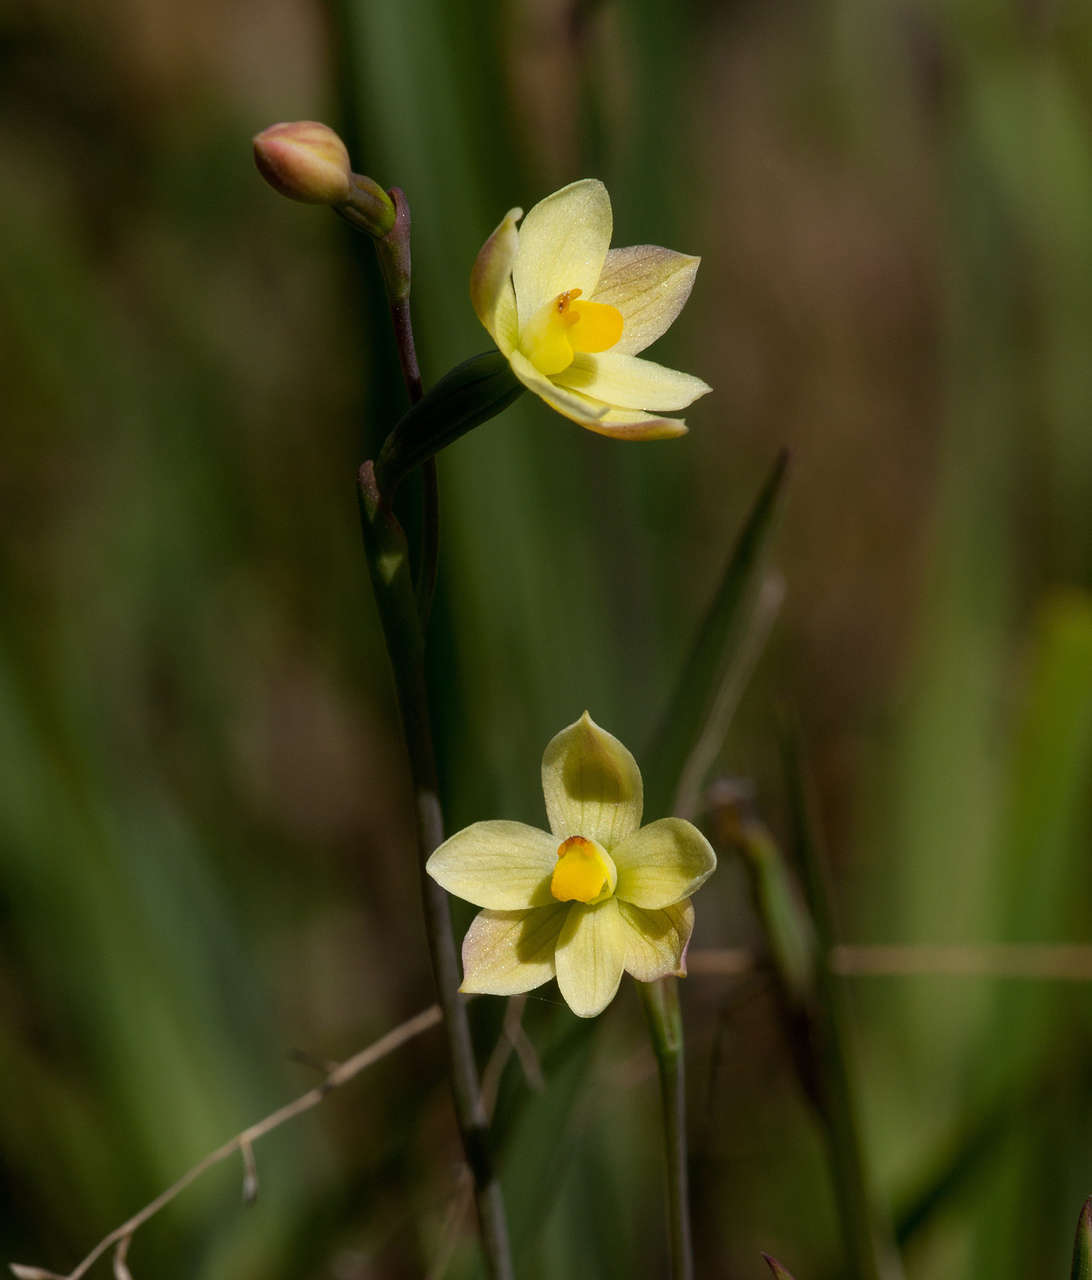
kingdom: Plantae
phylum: Tracheophyta
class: Liliopsida
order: Asparagales
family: Orchidaceae
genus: Thelymitra
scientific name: Thelymitra flexuosa
